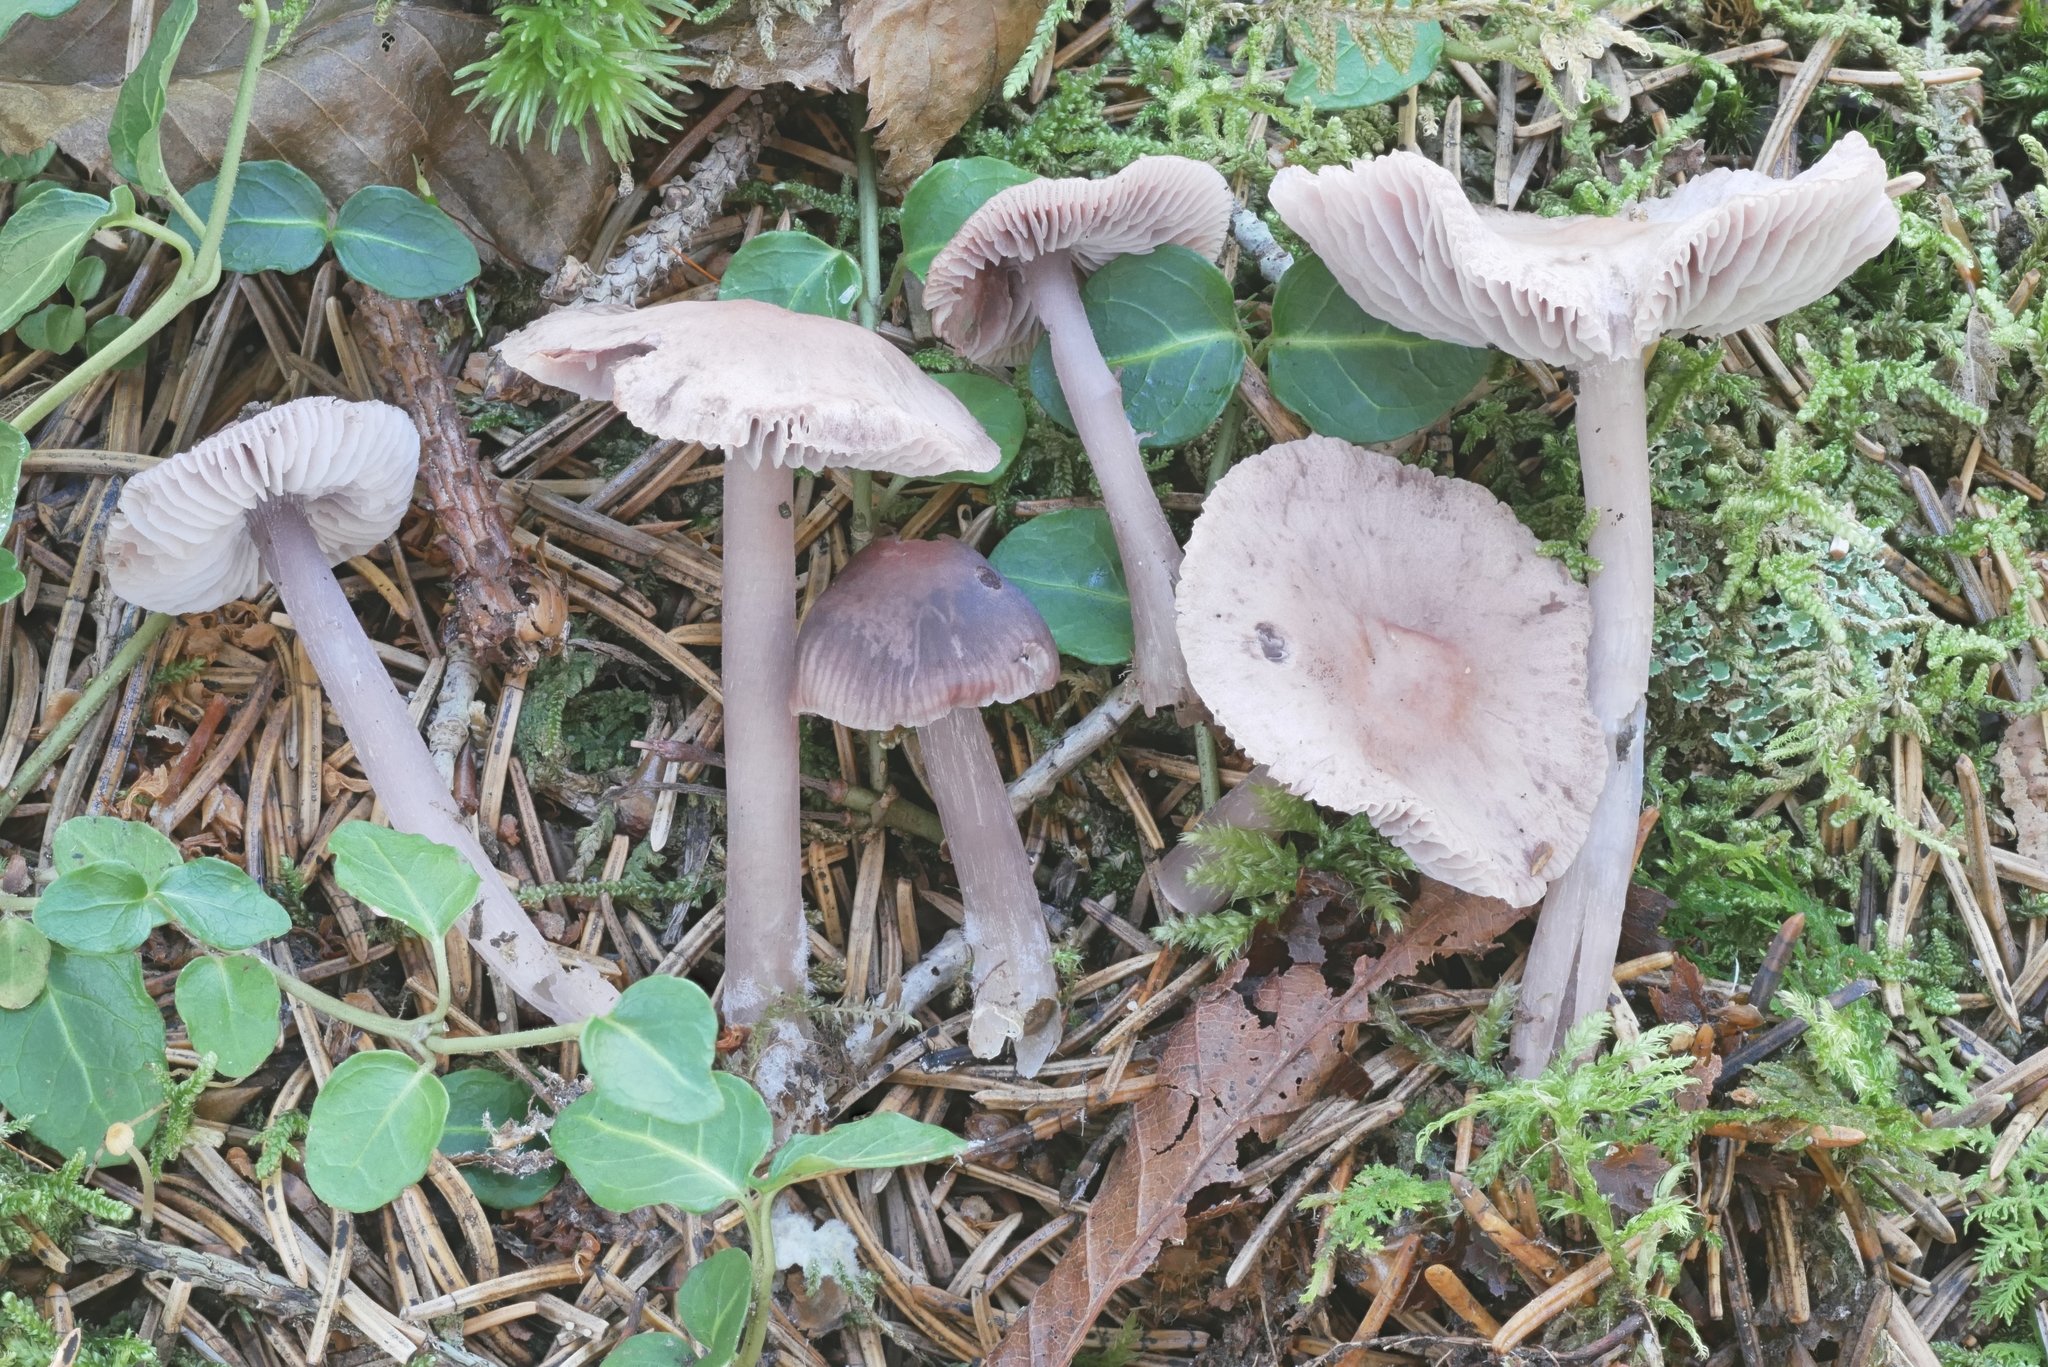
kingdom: Fungi
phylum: Basidiomycota
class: Agaricomycetes
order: Agaricales
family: Mycenaceae
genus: Mycena
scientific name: Mycena pura
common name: Lilac bonnet
